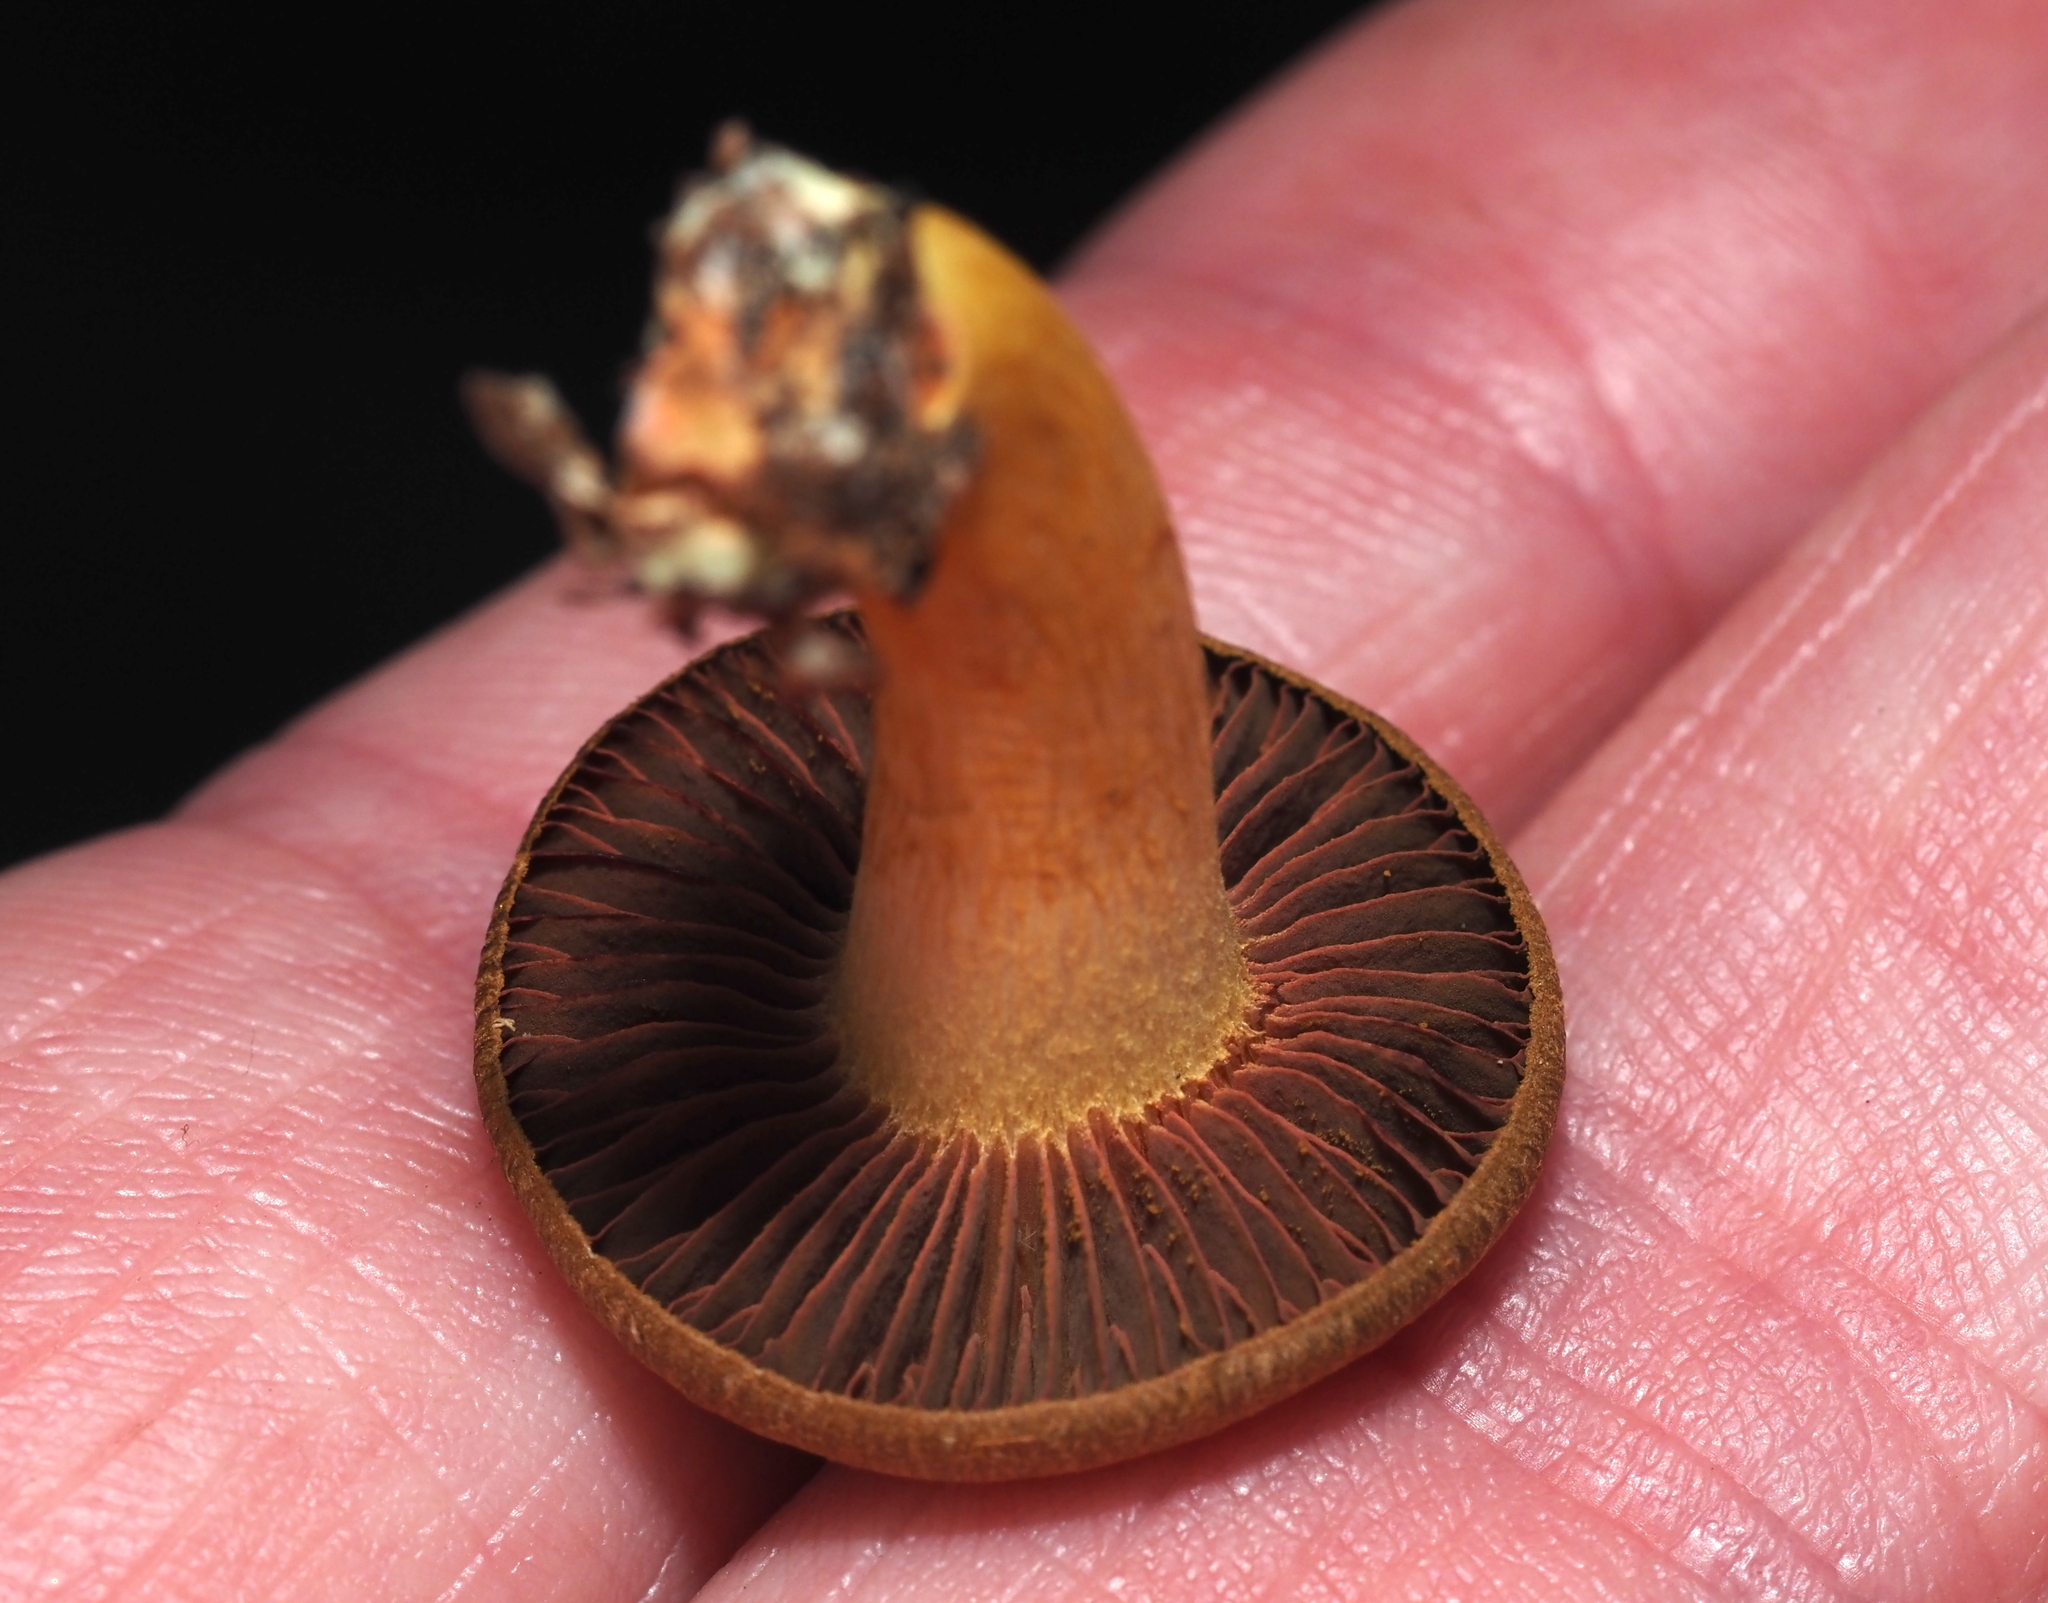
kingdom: Fungi
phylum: Basidiomycota
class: Agaricomycetes
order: Agaricales
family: Cortinariaceae
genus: Cortinarius
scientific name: Cortinarius semisanguineus
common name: Surprise webcap
